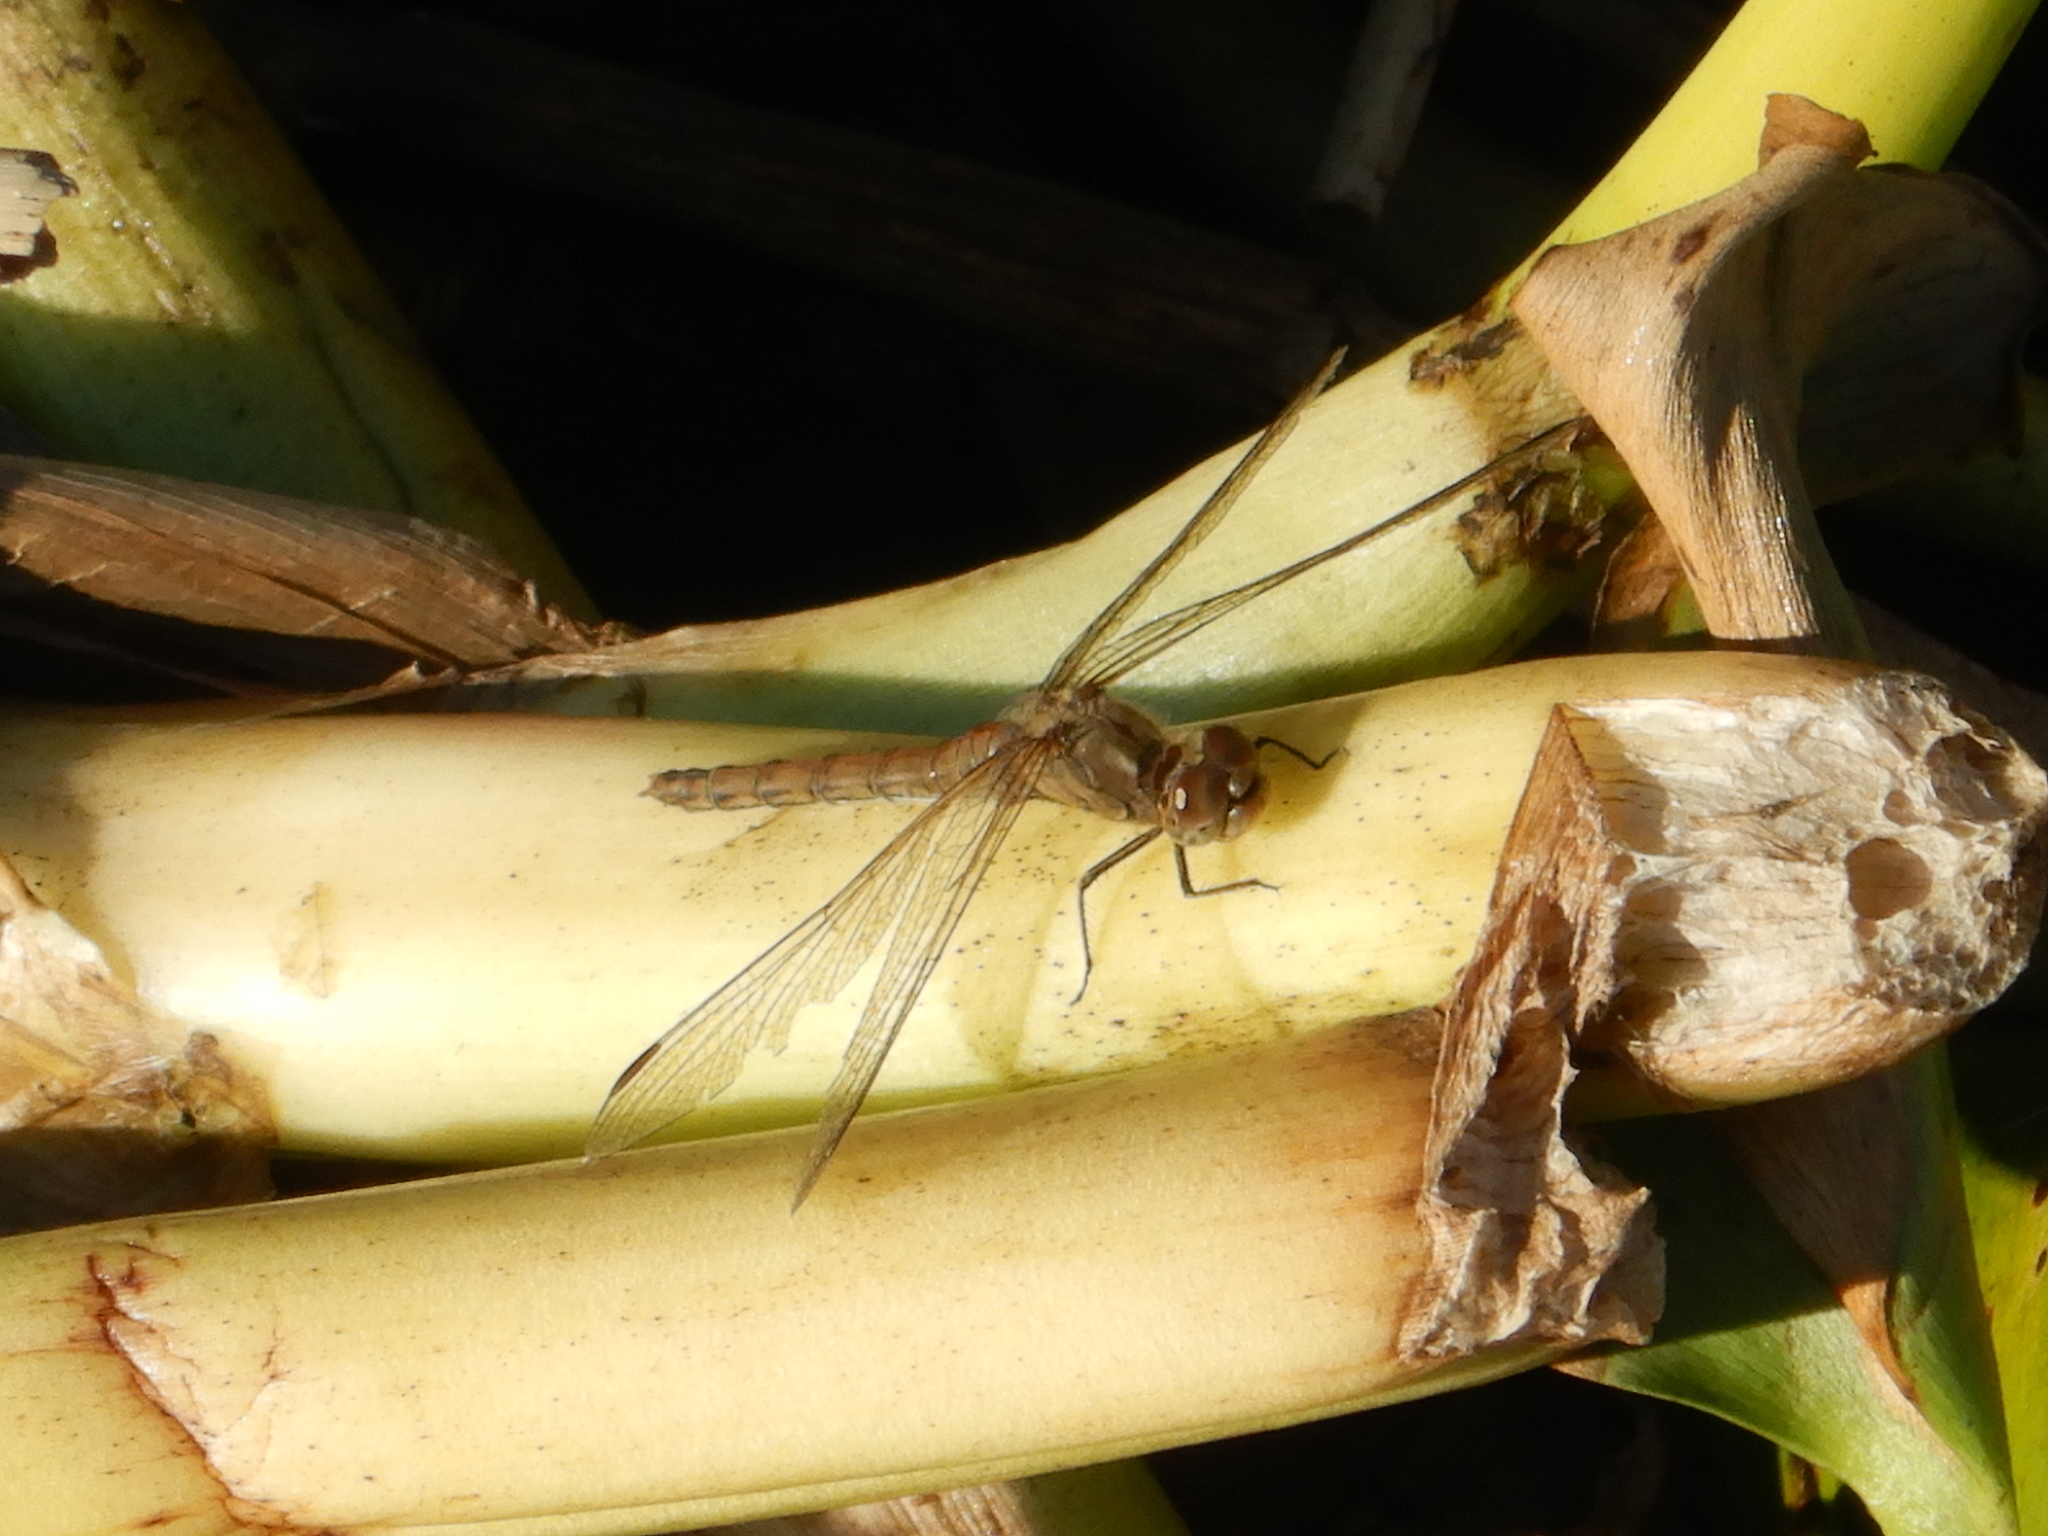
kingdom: Animalia
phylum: Arthropoda
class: Insecta
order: Odonata
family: Libellulidae
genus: Sympetrum
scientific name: Sympetrum striolatum
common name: Common darter
